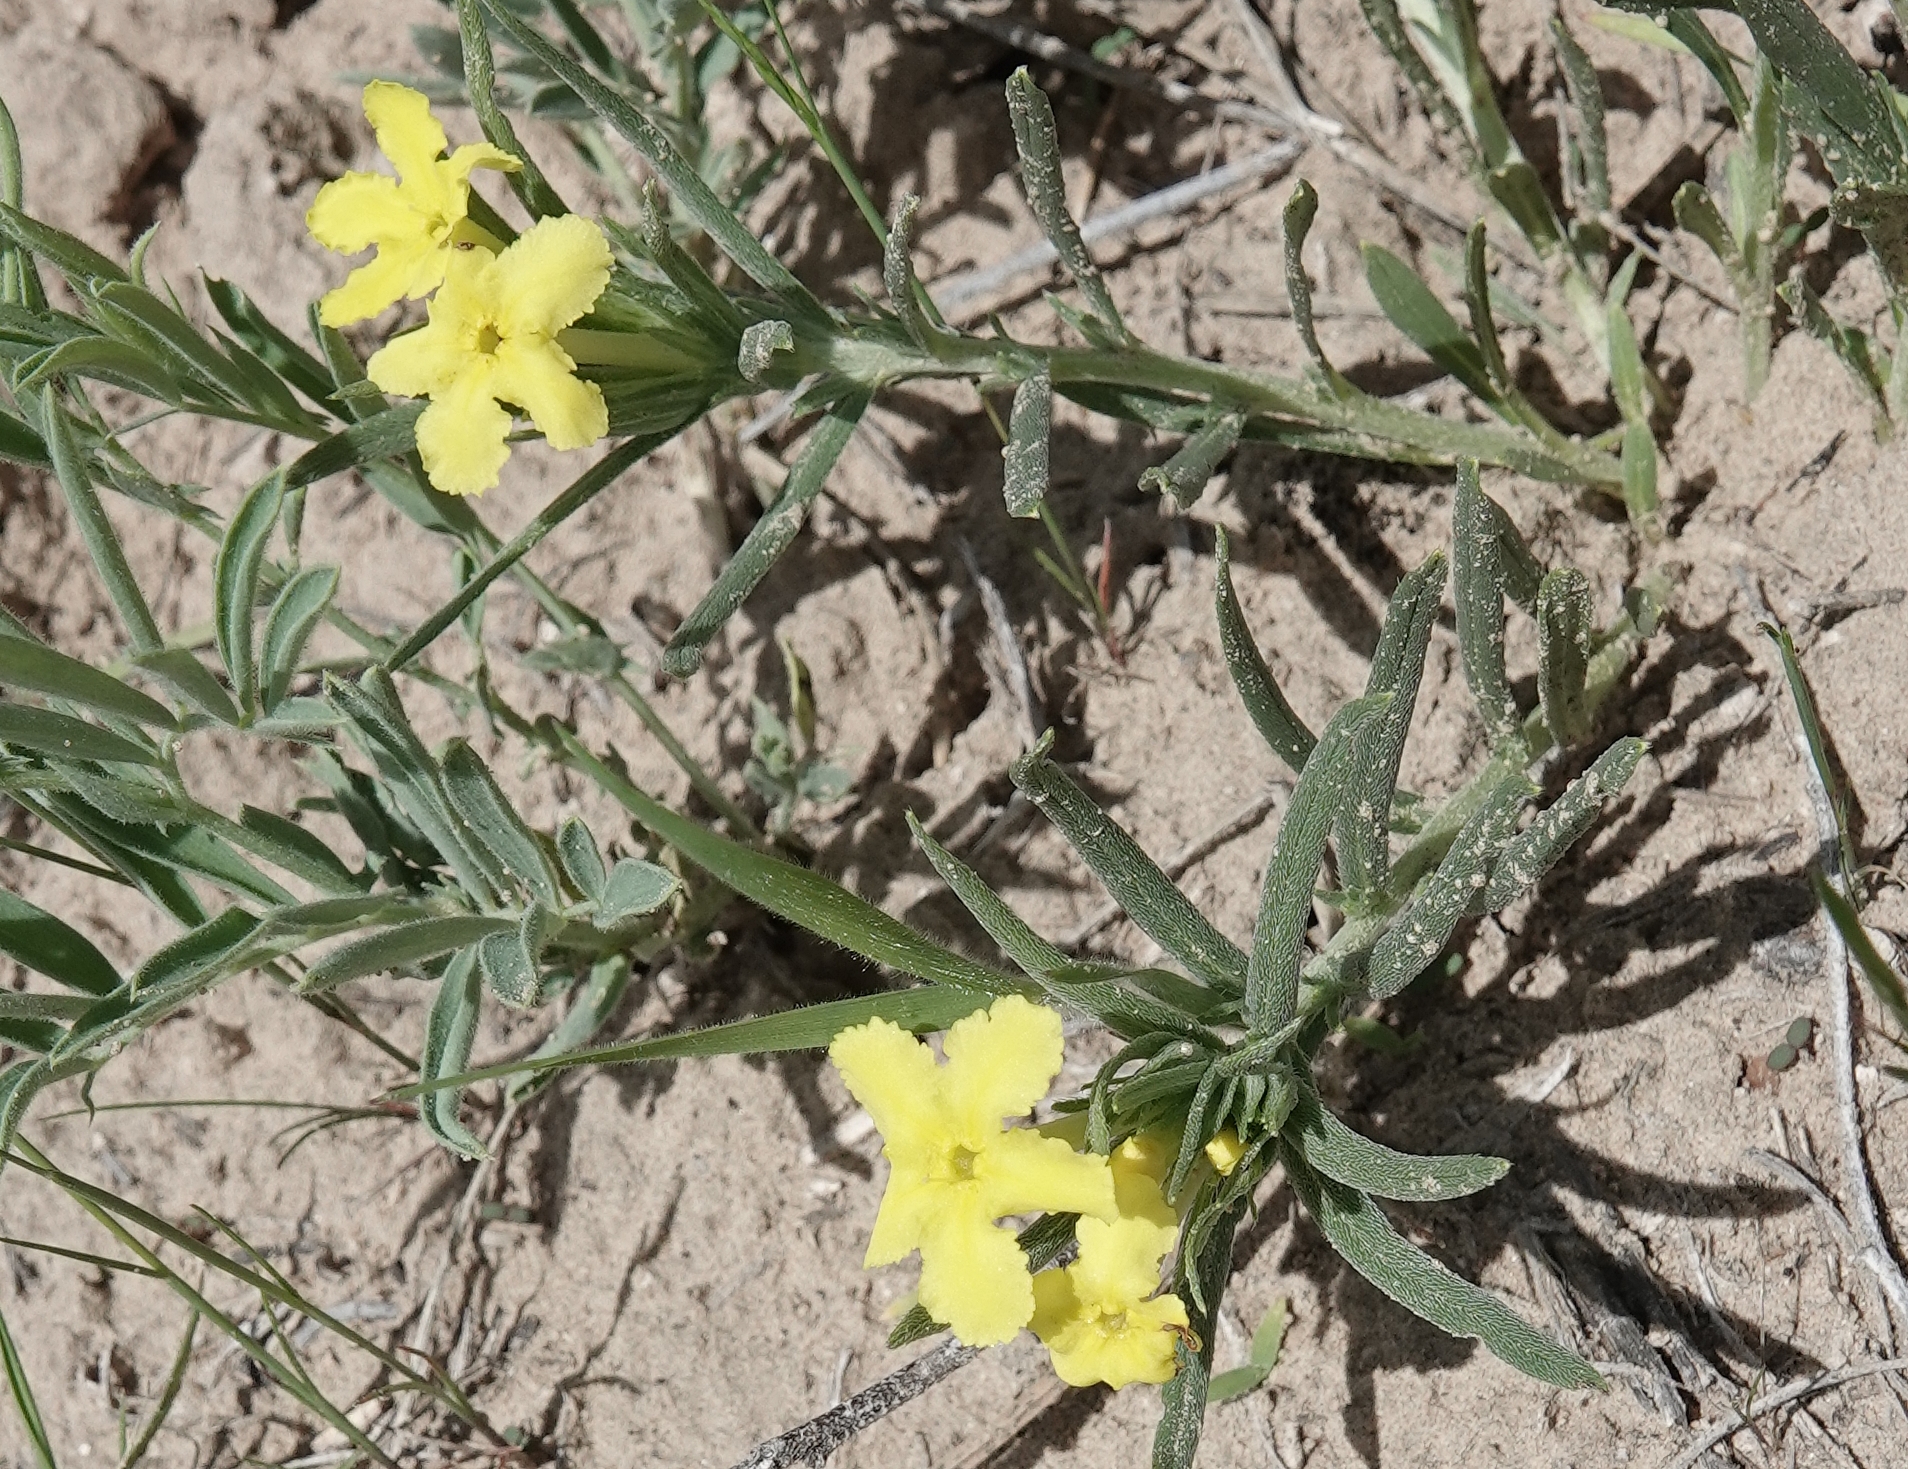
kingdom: Plantae
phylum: Tracheophyta
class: Magnoliopsida
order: Boraginales
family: Boraginaceae
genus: Lithospermum
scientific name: Lithospermum incisum
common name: Fringed gromwell
